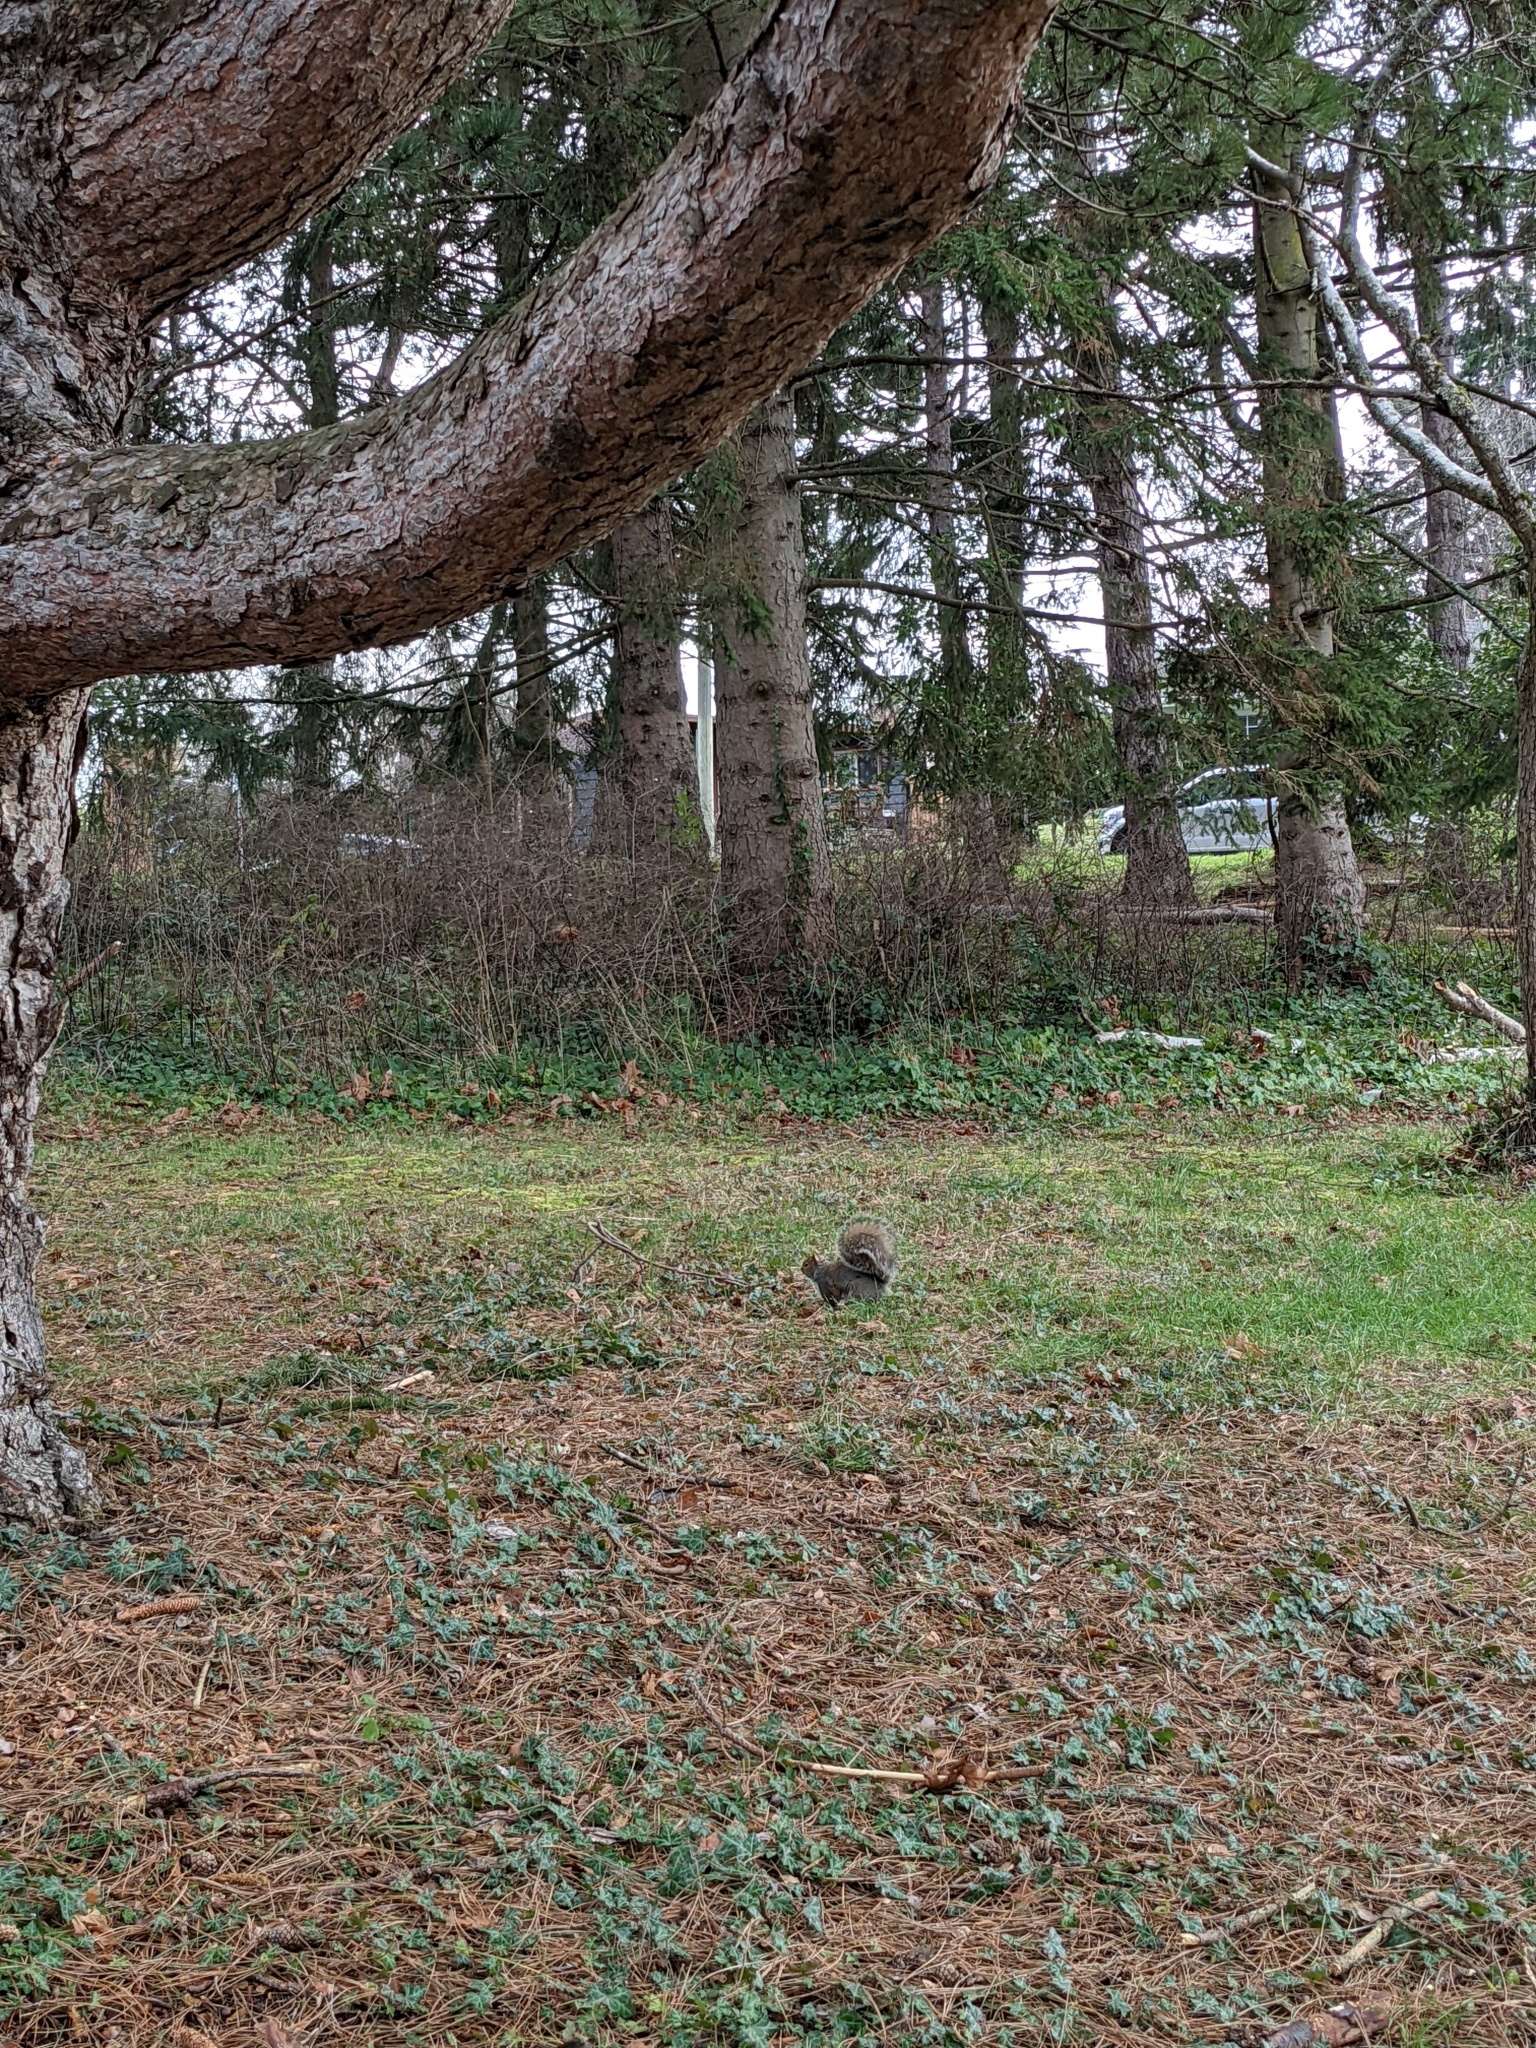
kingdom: Animalia
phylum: Chordata
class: Mammalia
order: Rodentia
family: Sciuridae
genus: Sciurus
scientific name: Sciurus carolinensis
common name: Eastern gray squirrel
